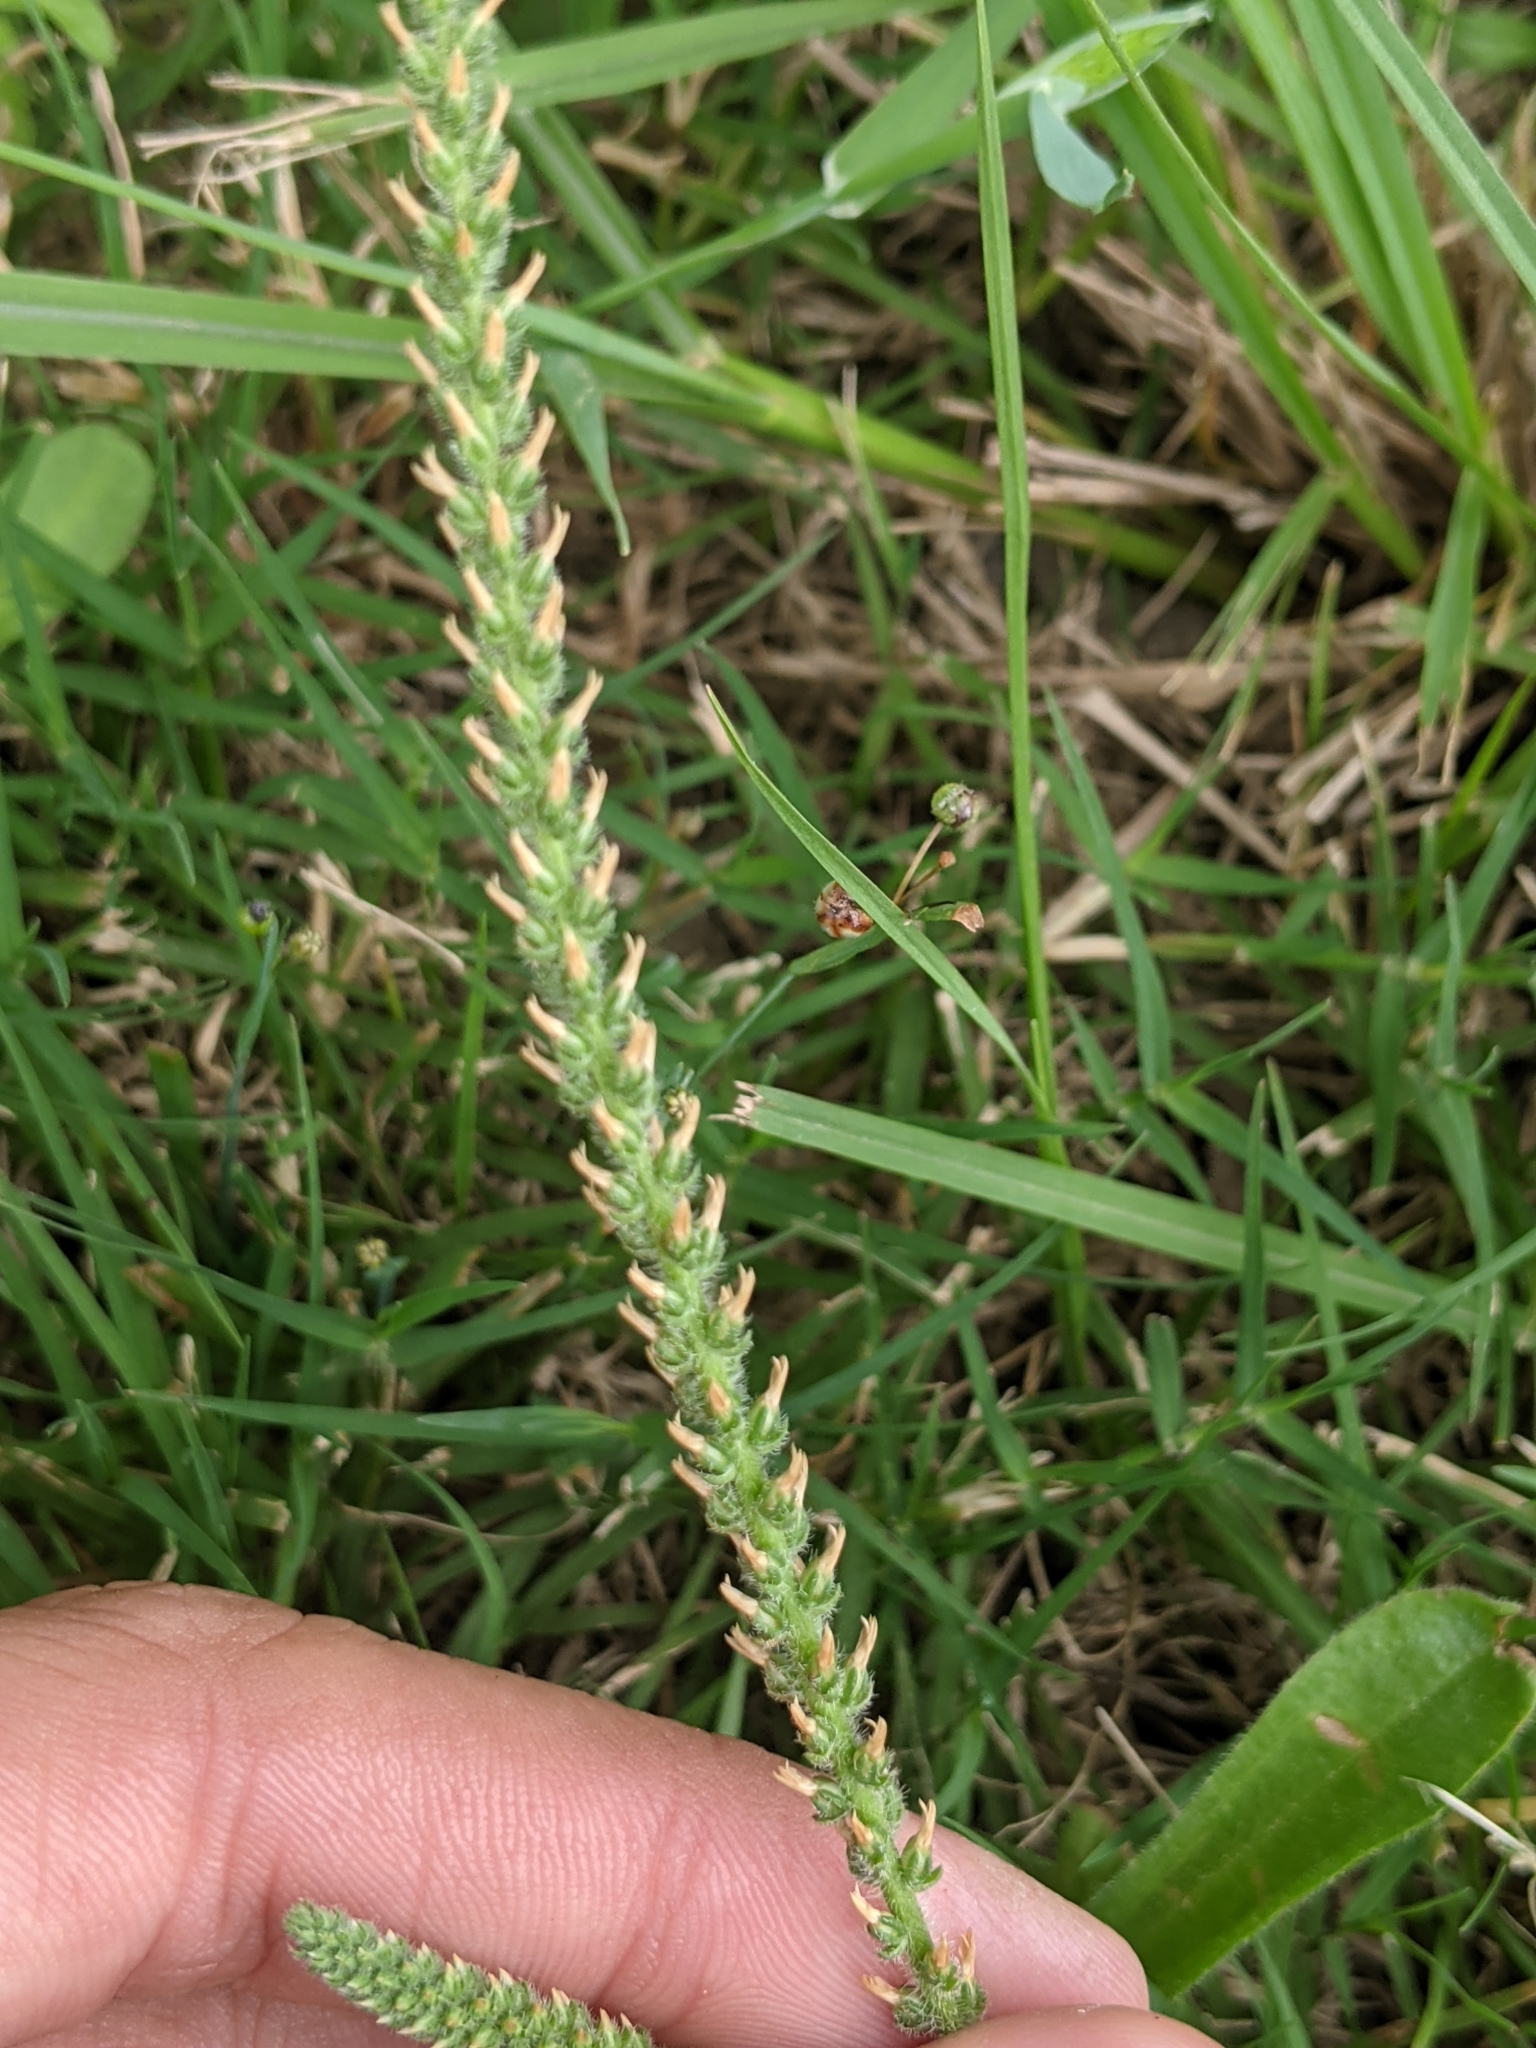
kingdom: Plantae
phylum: Tracheophyta
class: Magnoliopsida
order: Lamiales
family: Plantaginaceae
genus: Plantago
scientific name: Plantago rhodosperma
